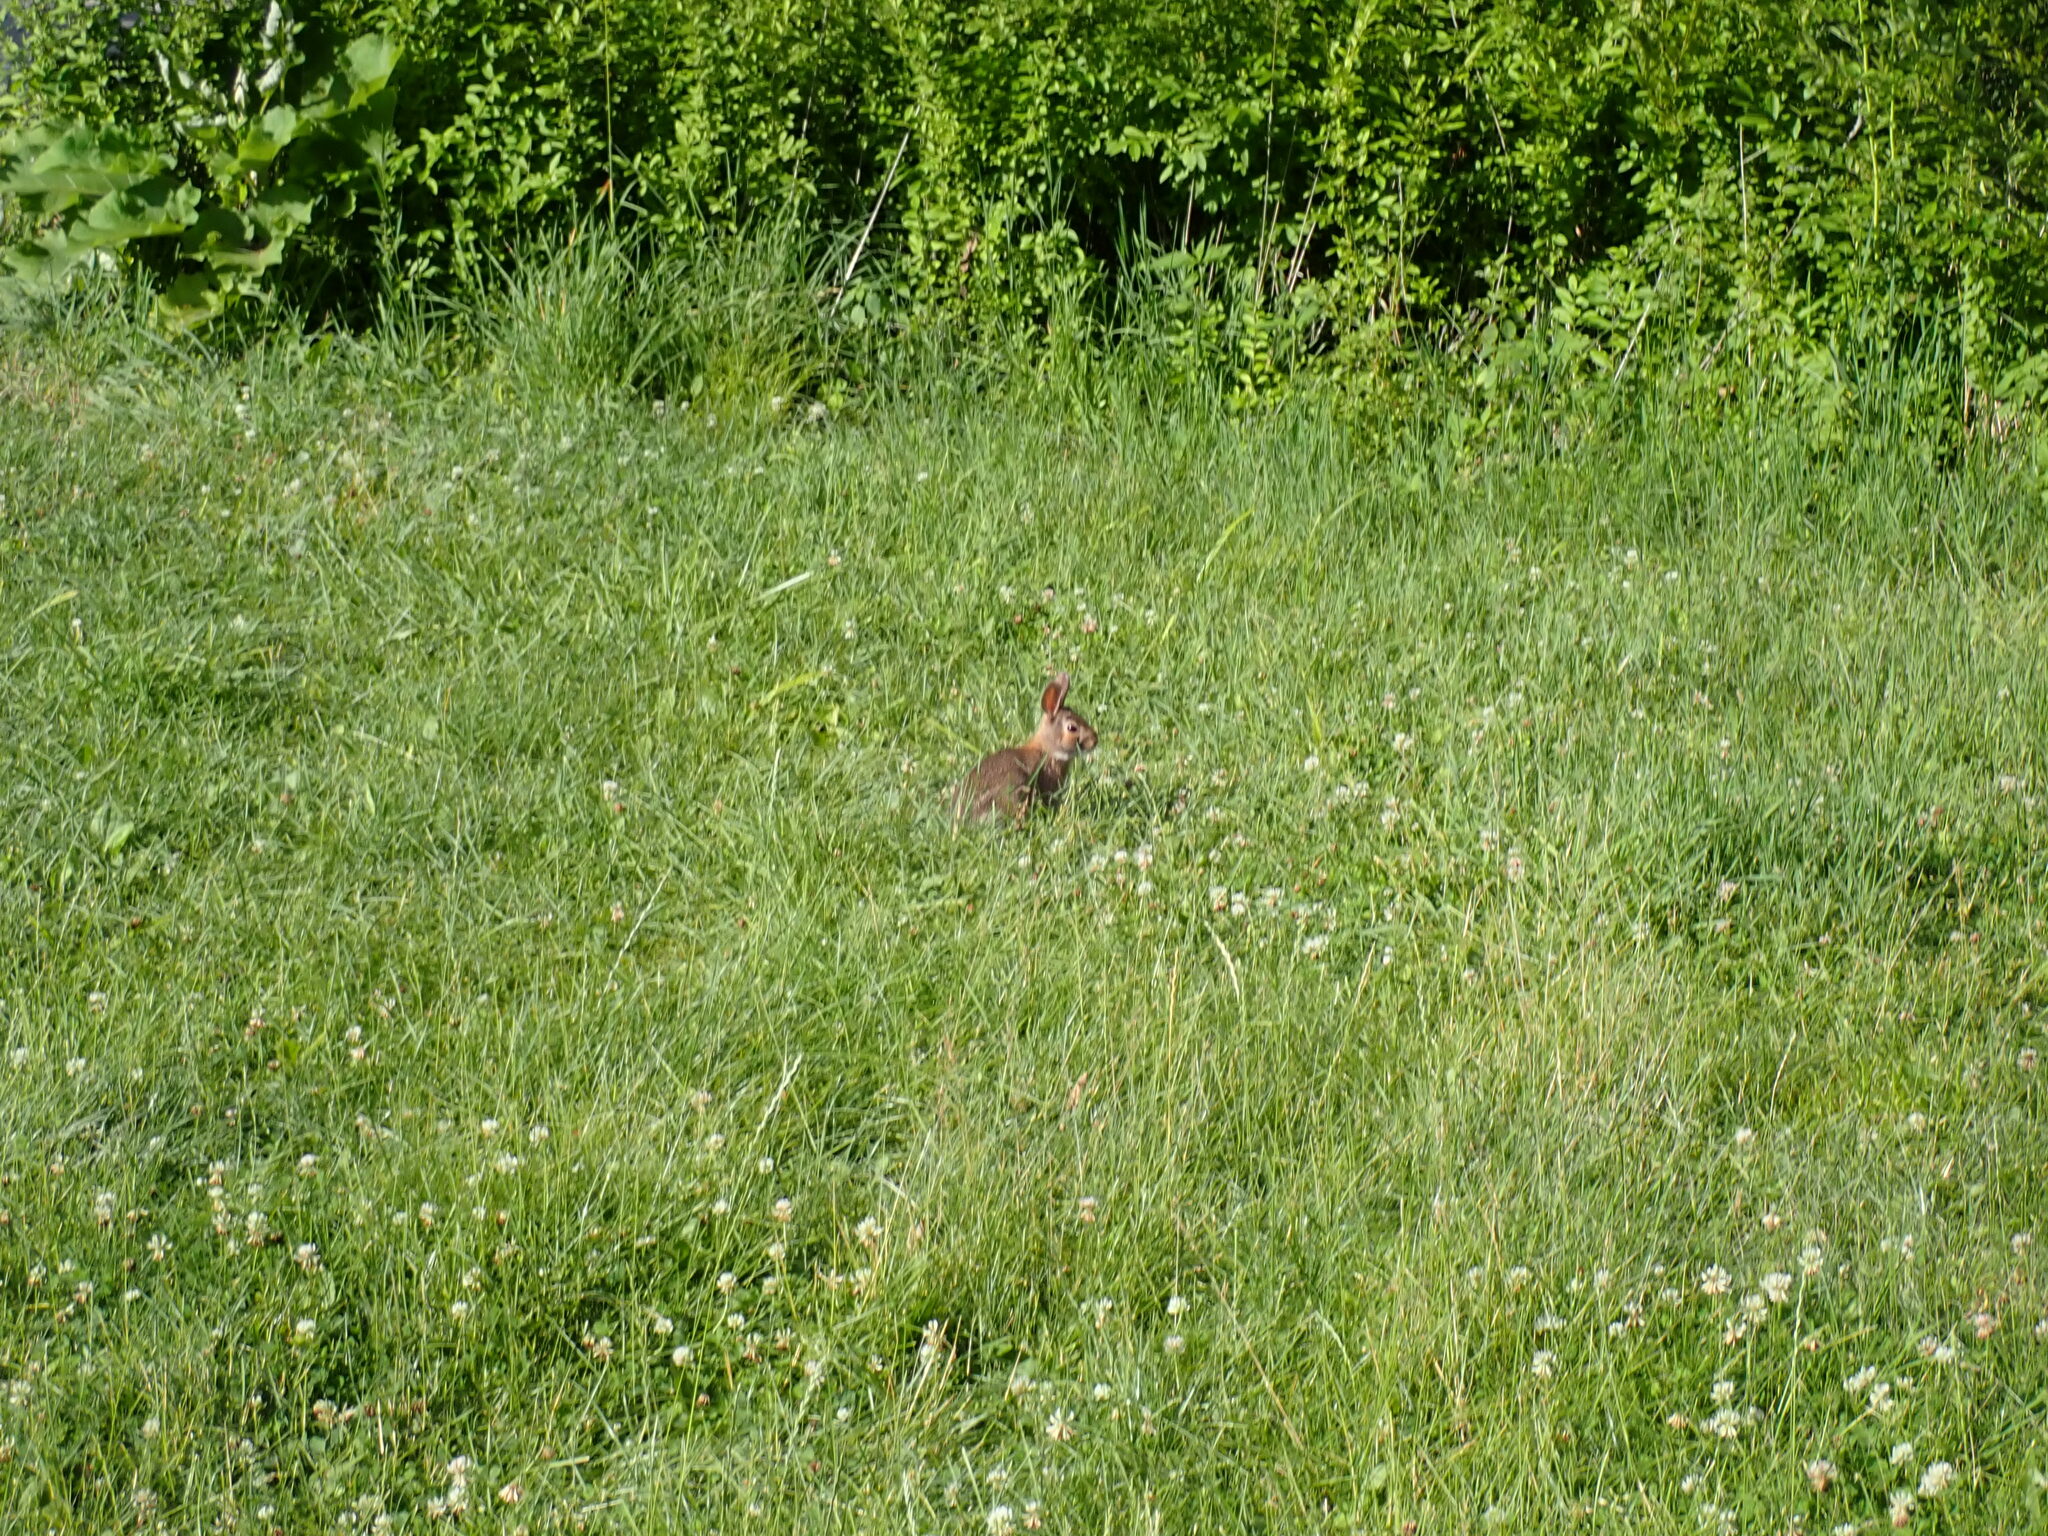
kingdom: Animalia
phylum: Chordata
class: Mammalia
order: Lagomorpha
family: Leporidae
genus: Sylvilagus
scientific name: Sylvilagus floridanus
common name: Eastern cottontail
